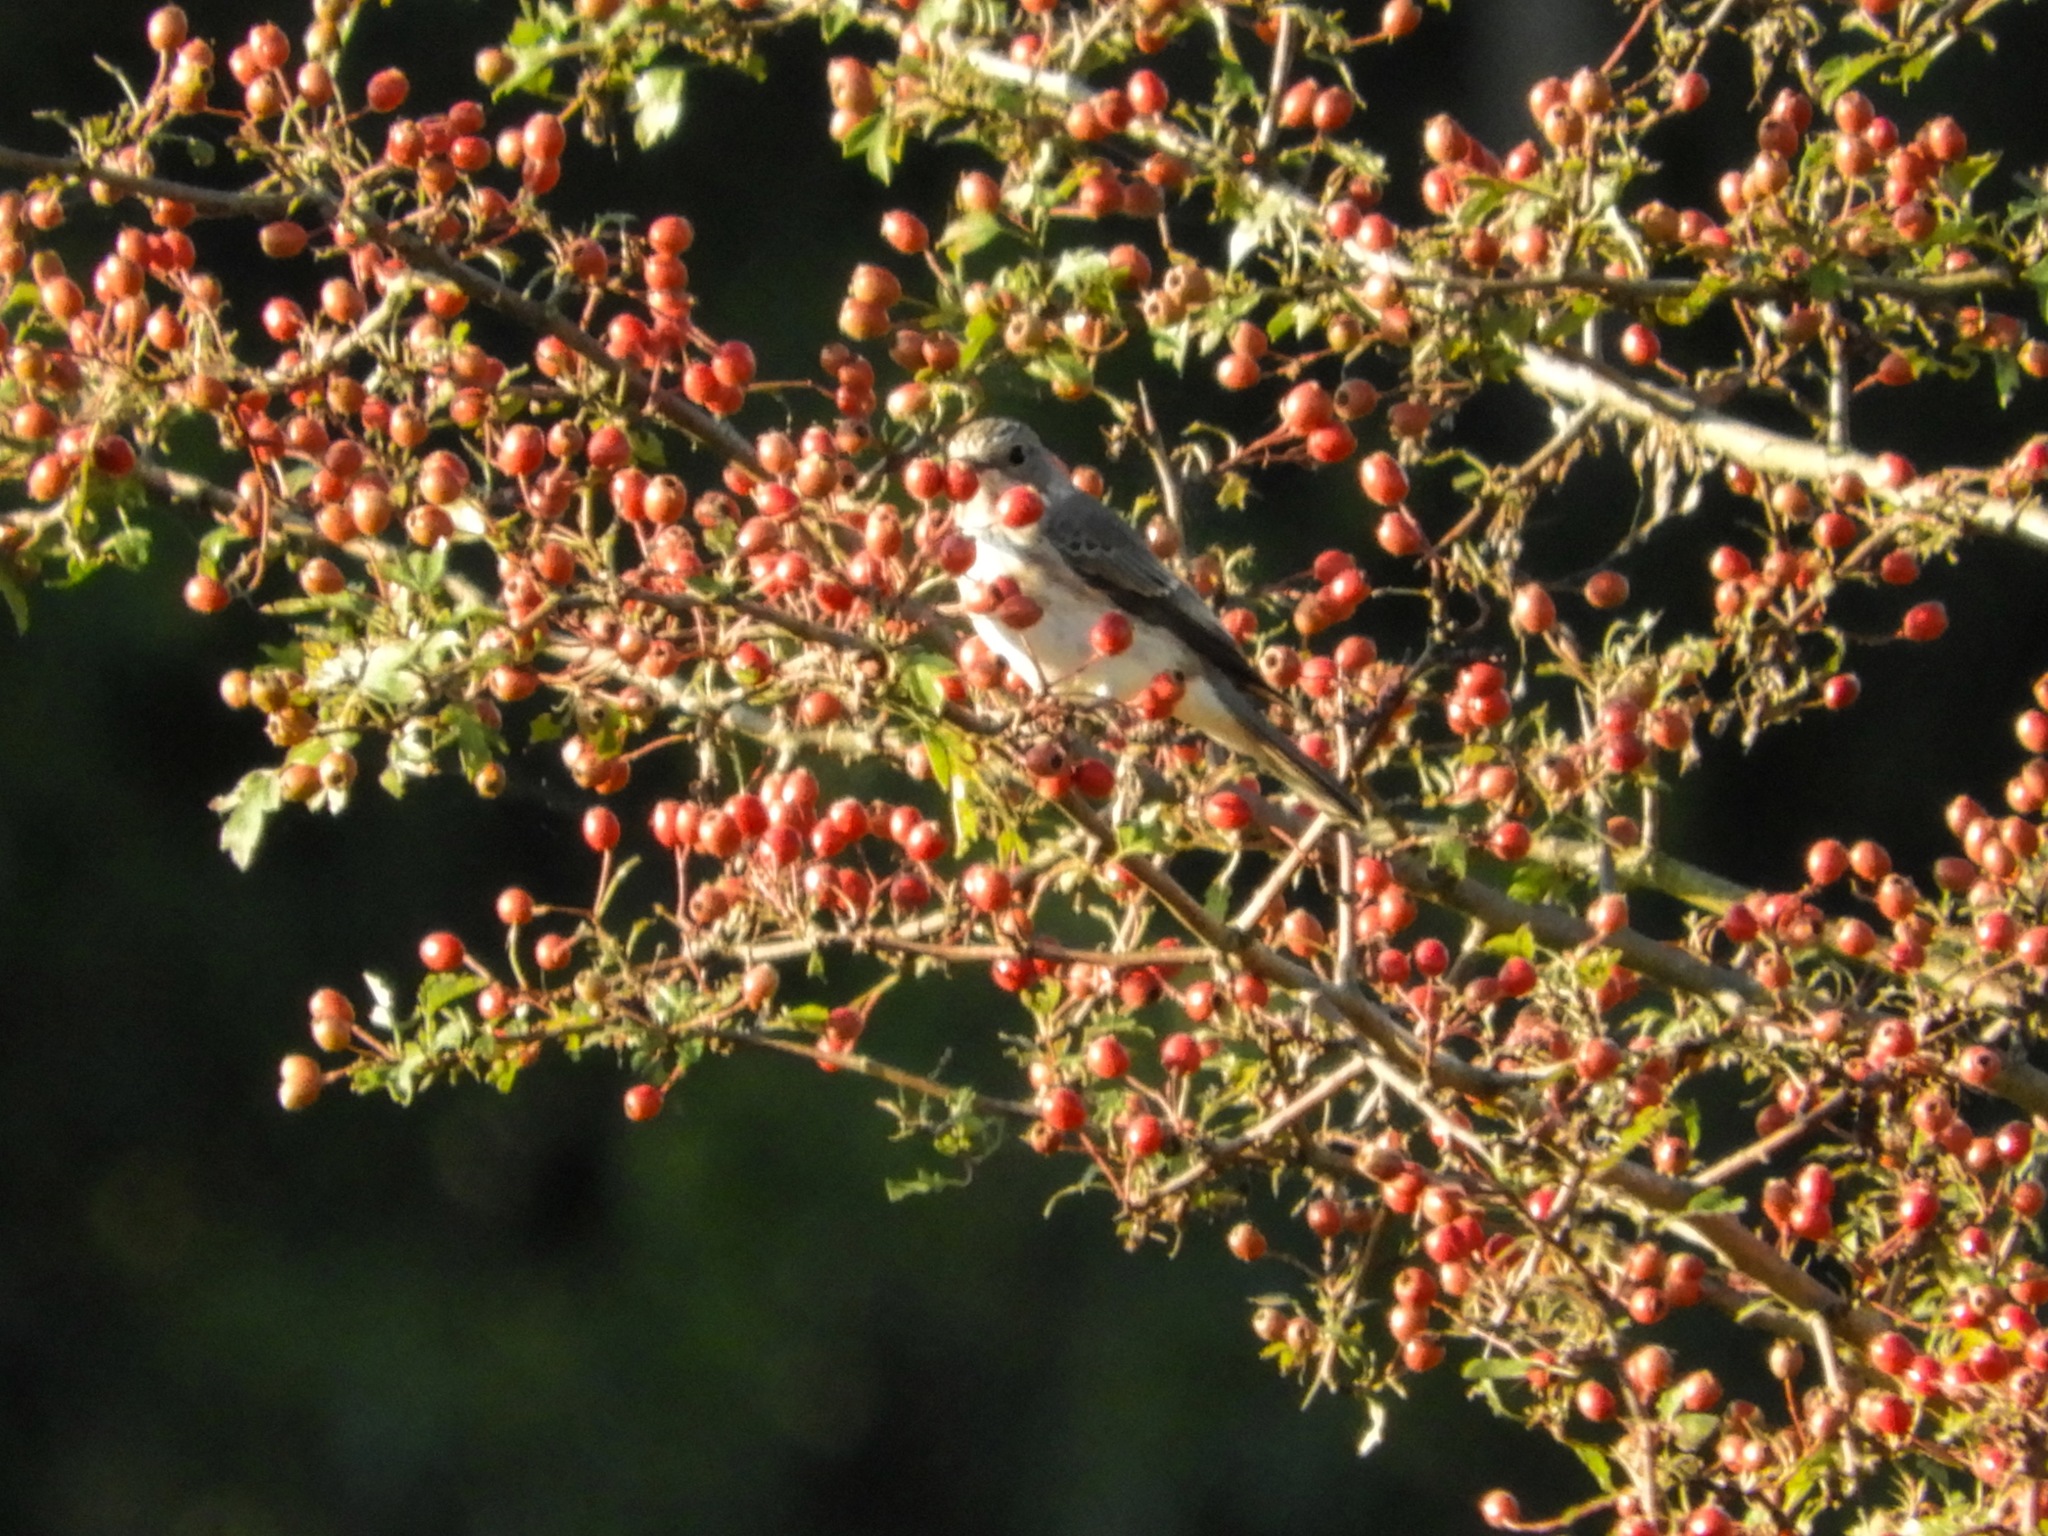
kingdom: Animalia
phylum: Chordata
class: Aves
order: Passeriformes
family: Muscicapidae
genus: Phoenicurus
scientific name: Phoenicurus phoenicurus
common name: Common redstart
